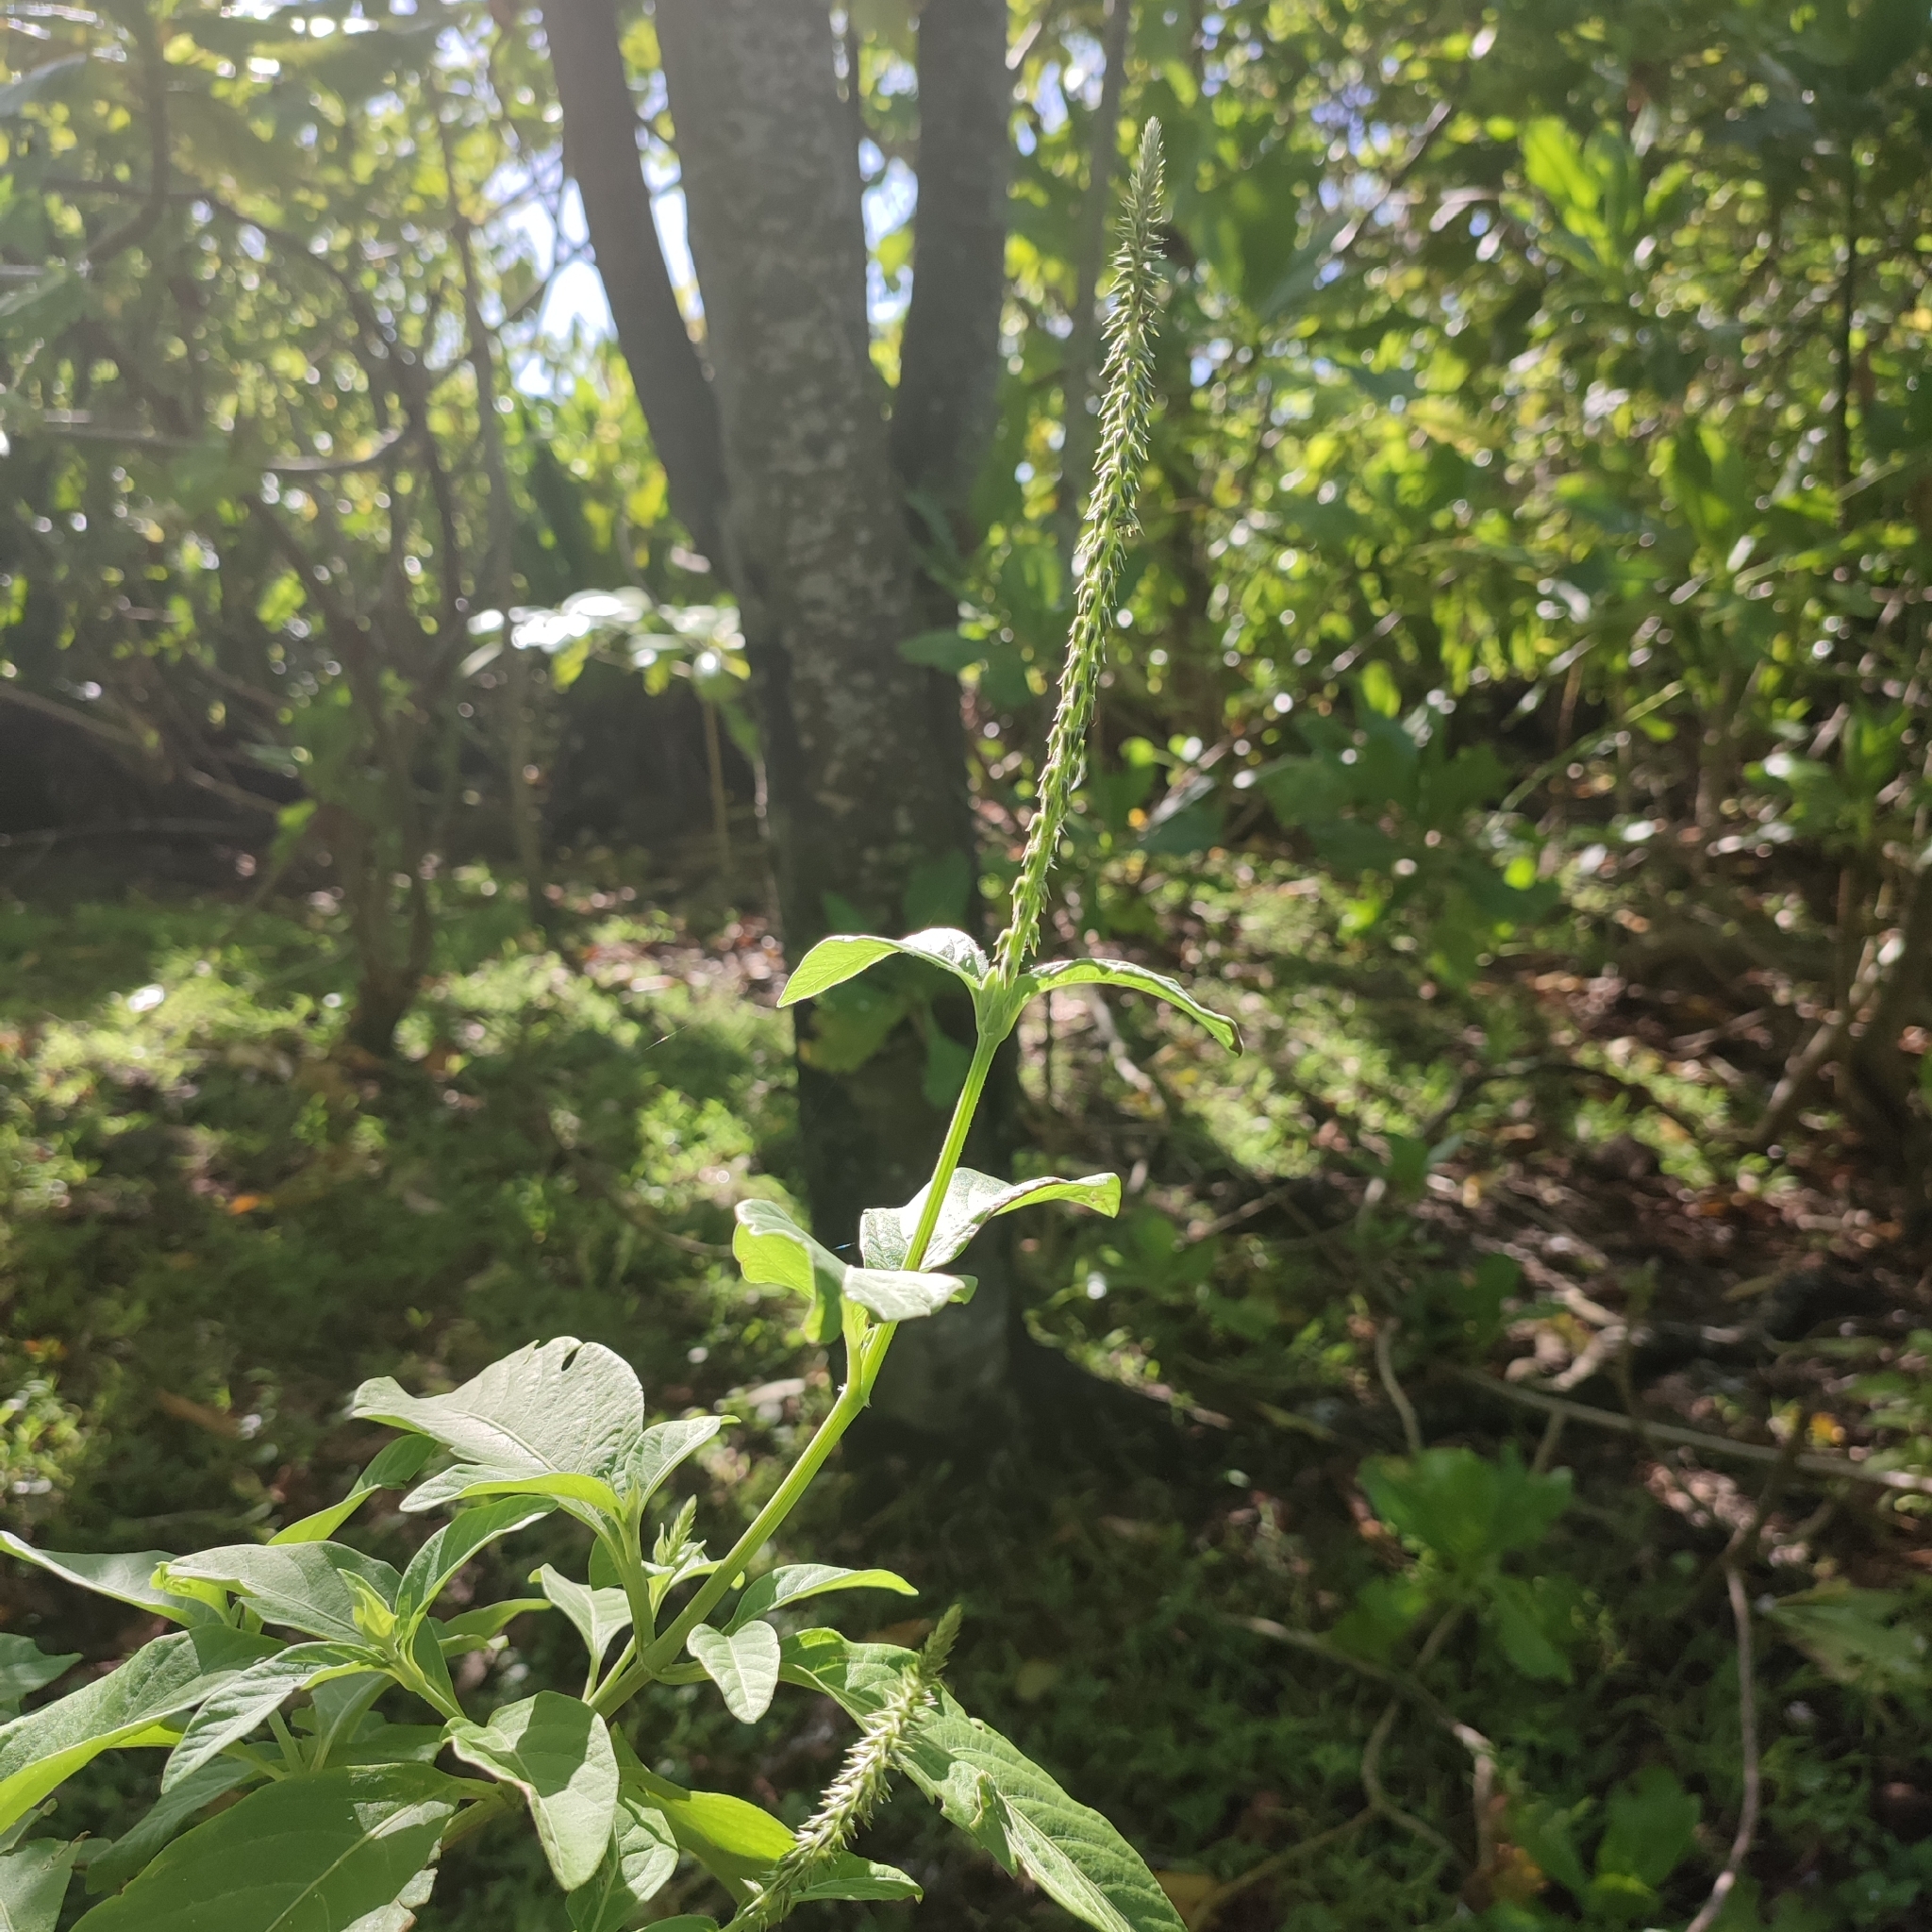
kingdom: Plantae
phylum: Tracheophyta
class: Magnoliopsida
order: Caryophyllales
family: Amaranthaceae
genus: Achyranthes
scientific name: Achyranthes aspera
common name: Devil's horsewhip
